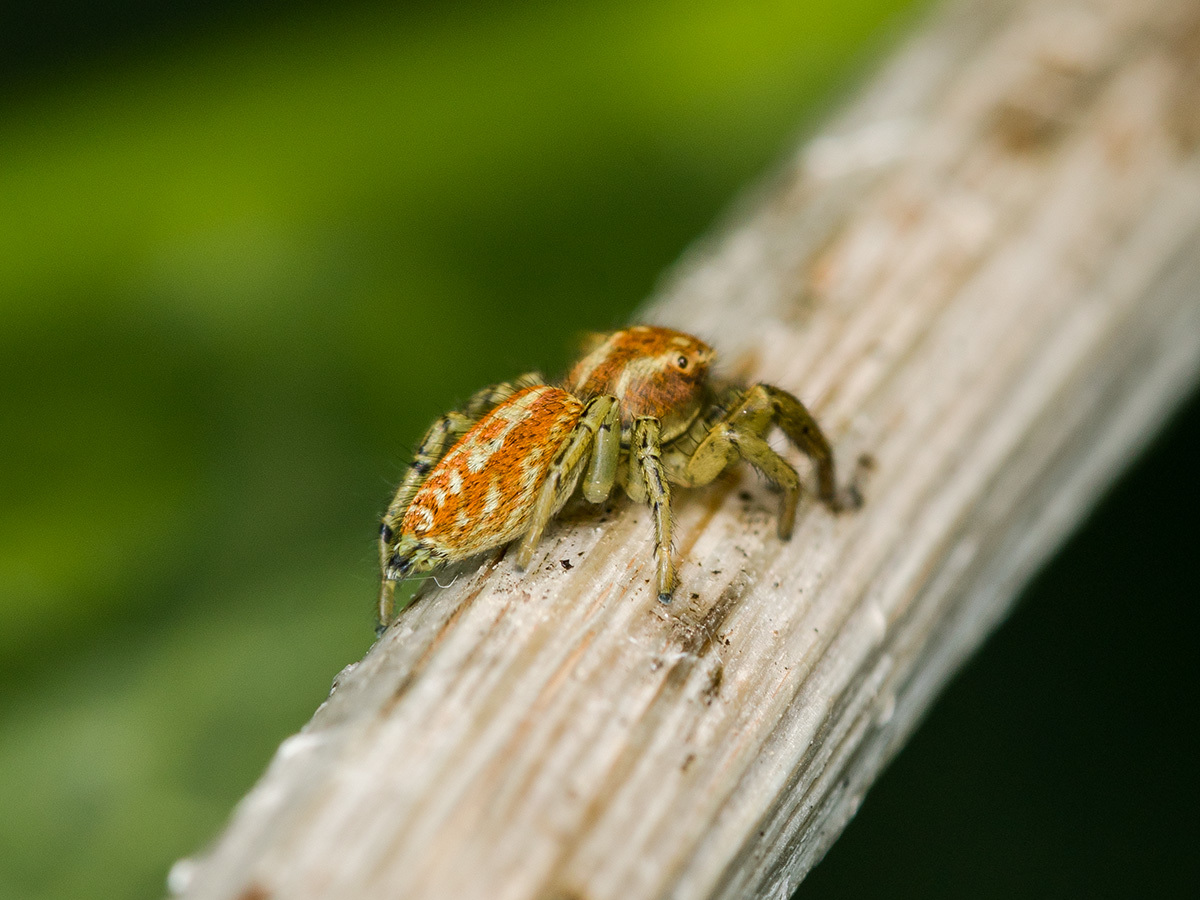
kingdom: Animalia
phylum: Arthropoda
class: Arachnida
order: Araneae
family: Salticidae
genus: Marpissa
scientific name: Marpissa pomatia
